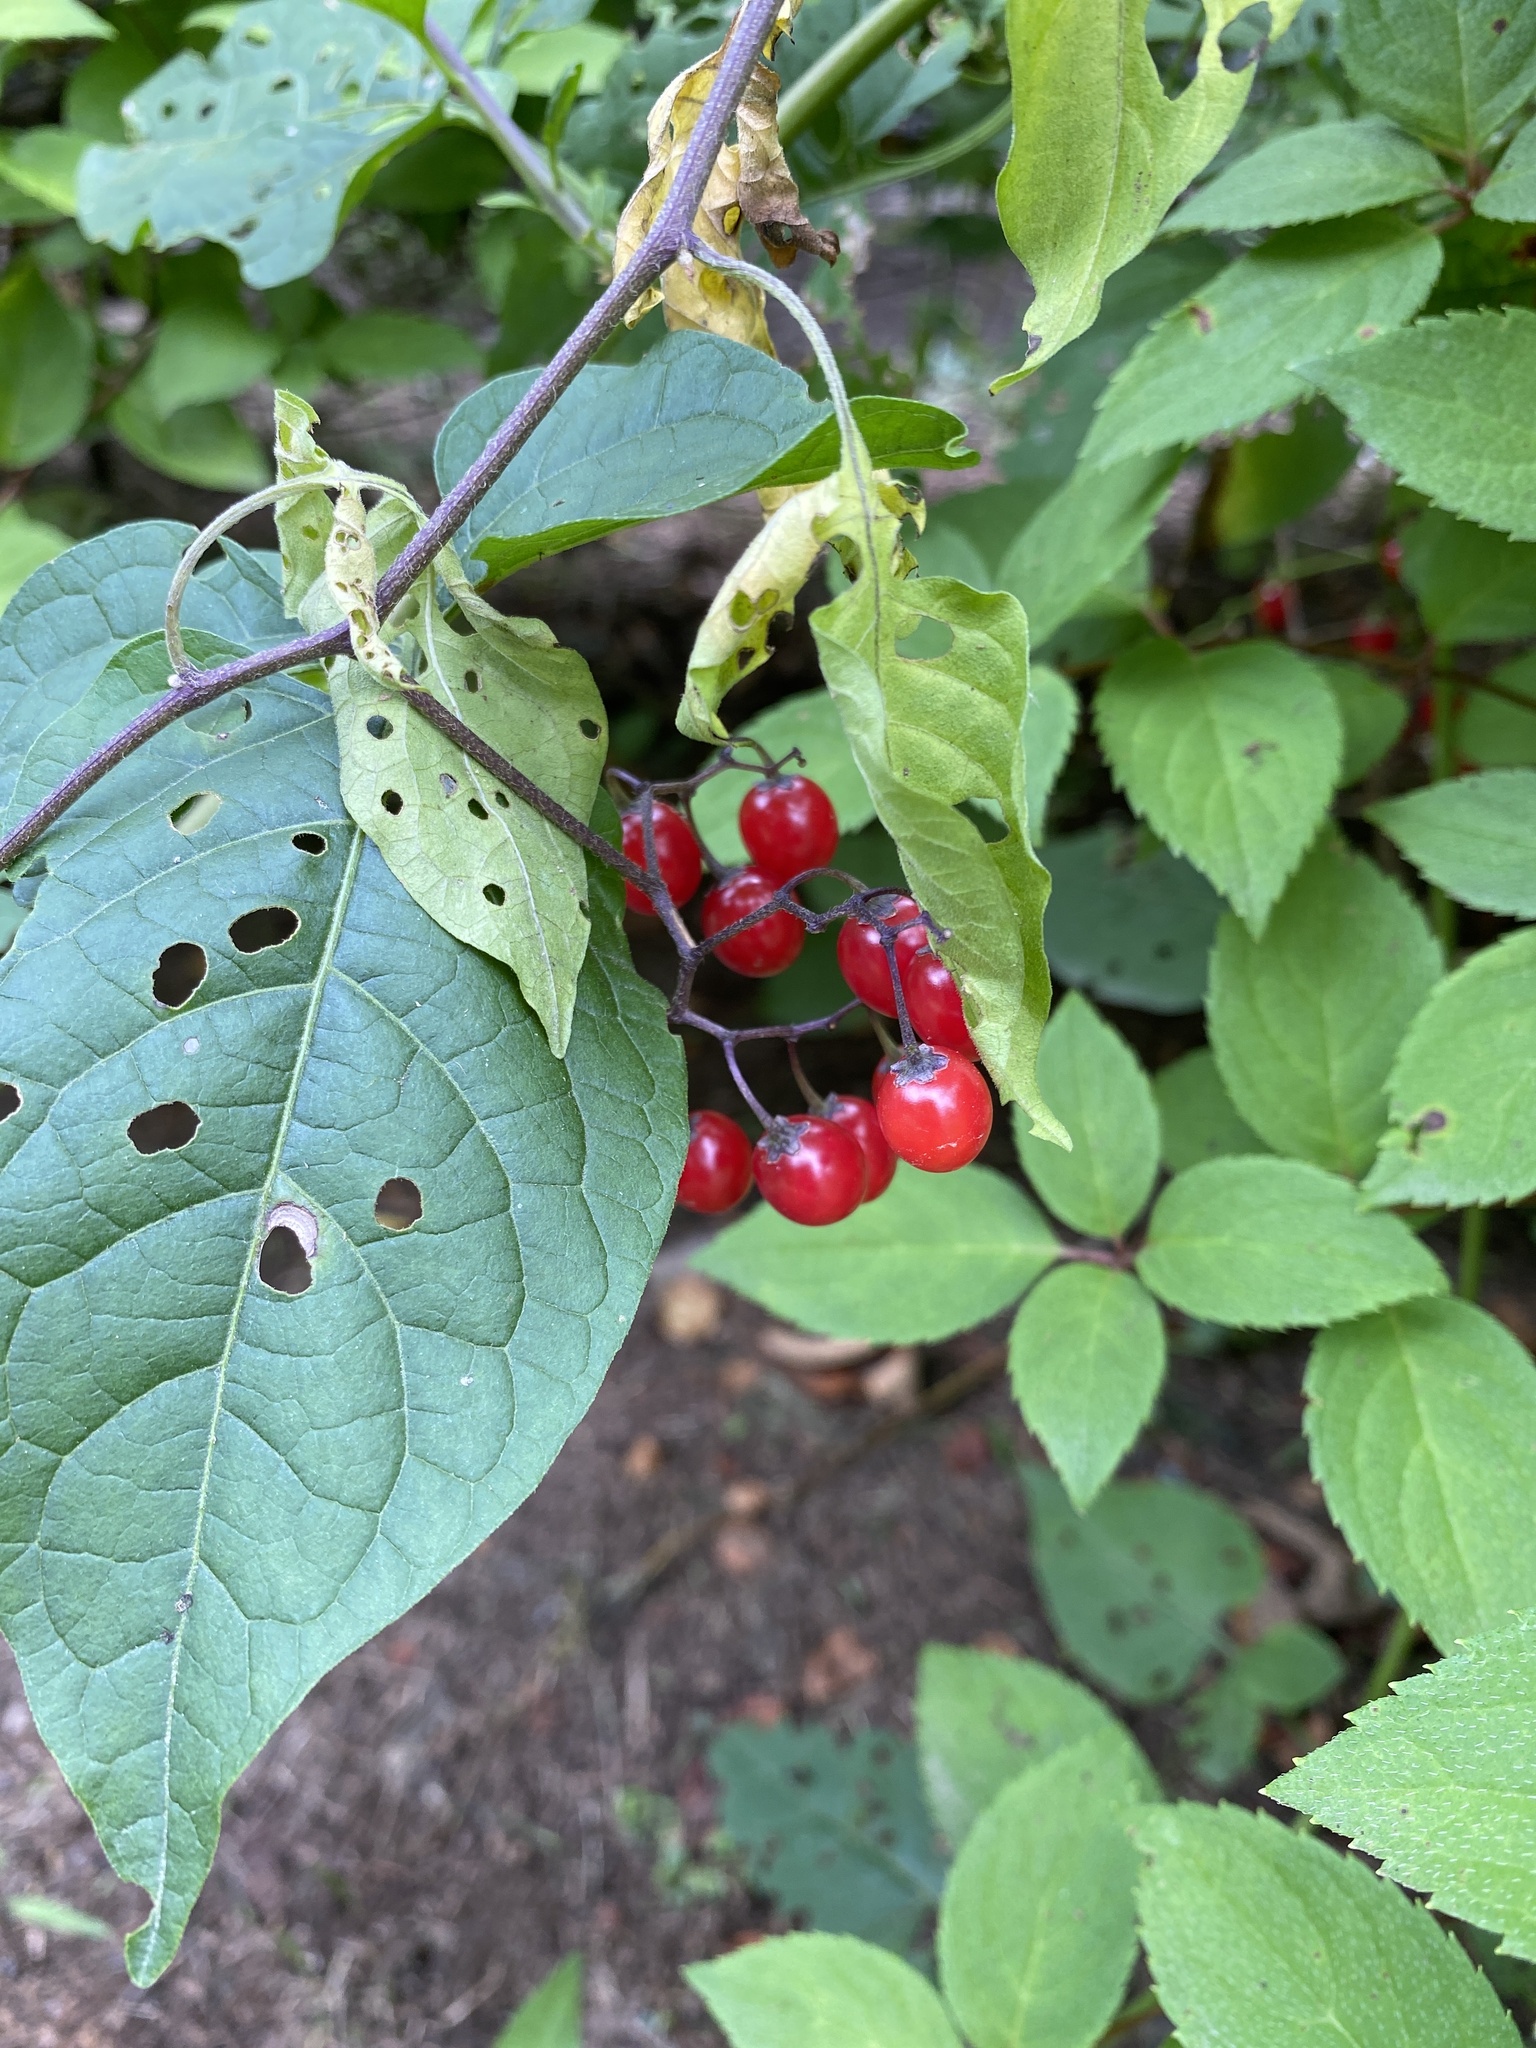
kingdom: Plantae
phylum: Tracheophyta
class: Magnoliopsida
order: Solanales
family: Solanaceae
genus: Solanum
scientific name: Solanum dulcamara
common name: Climbing nightshade
